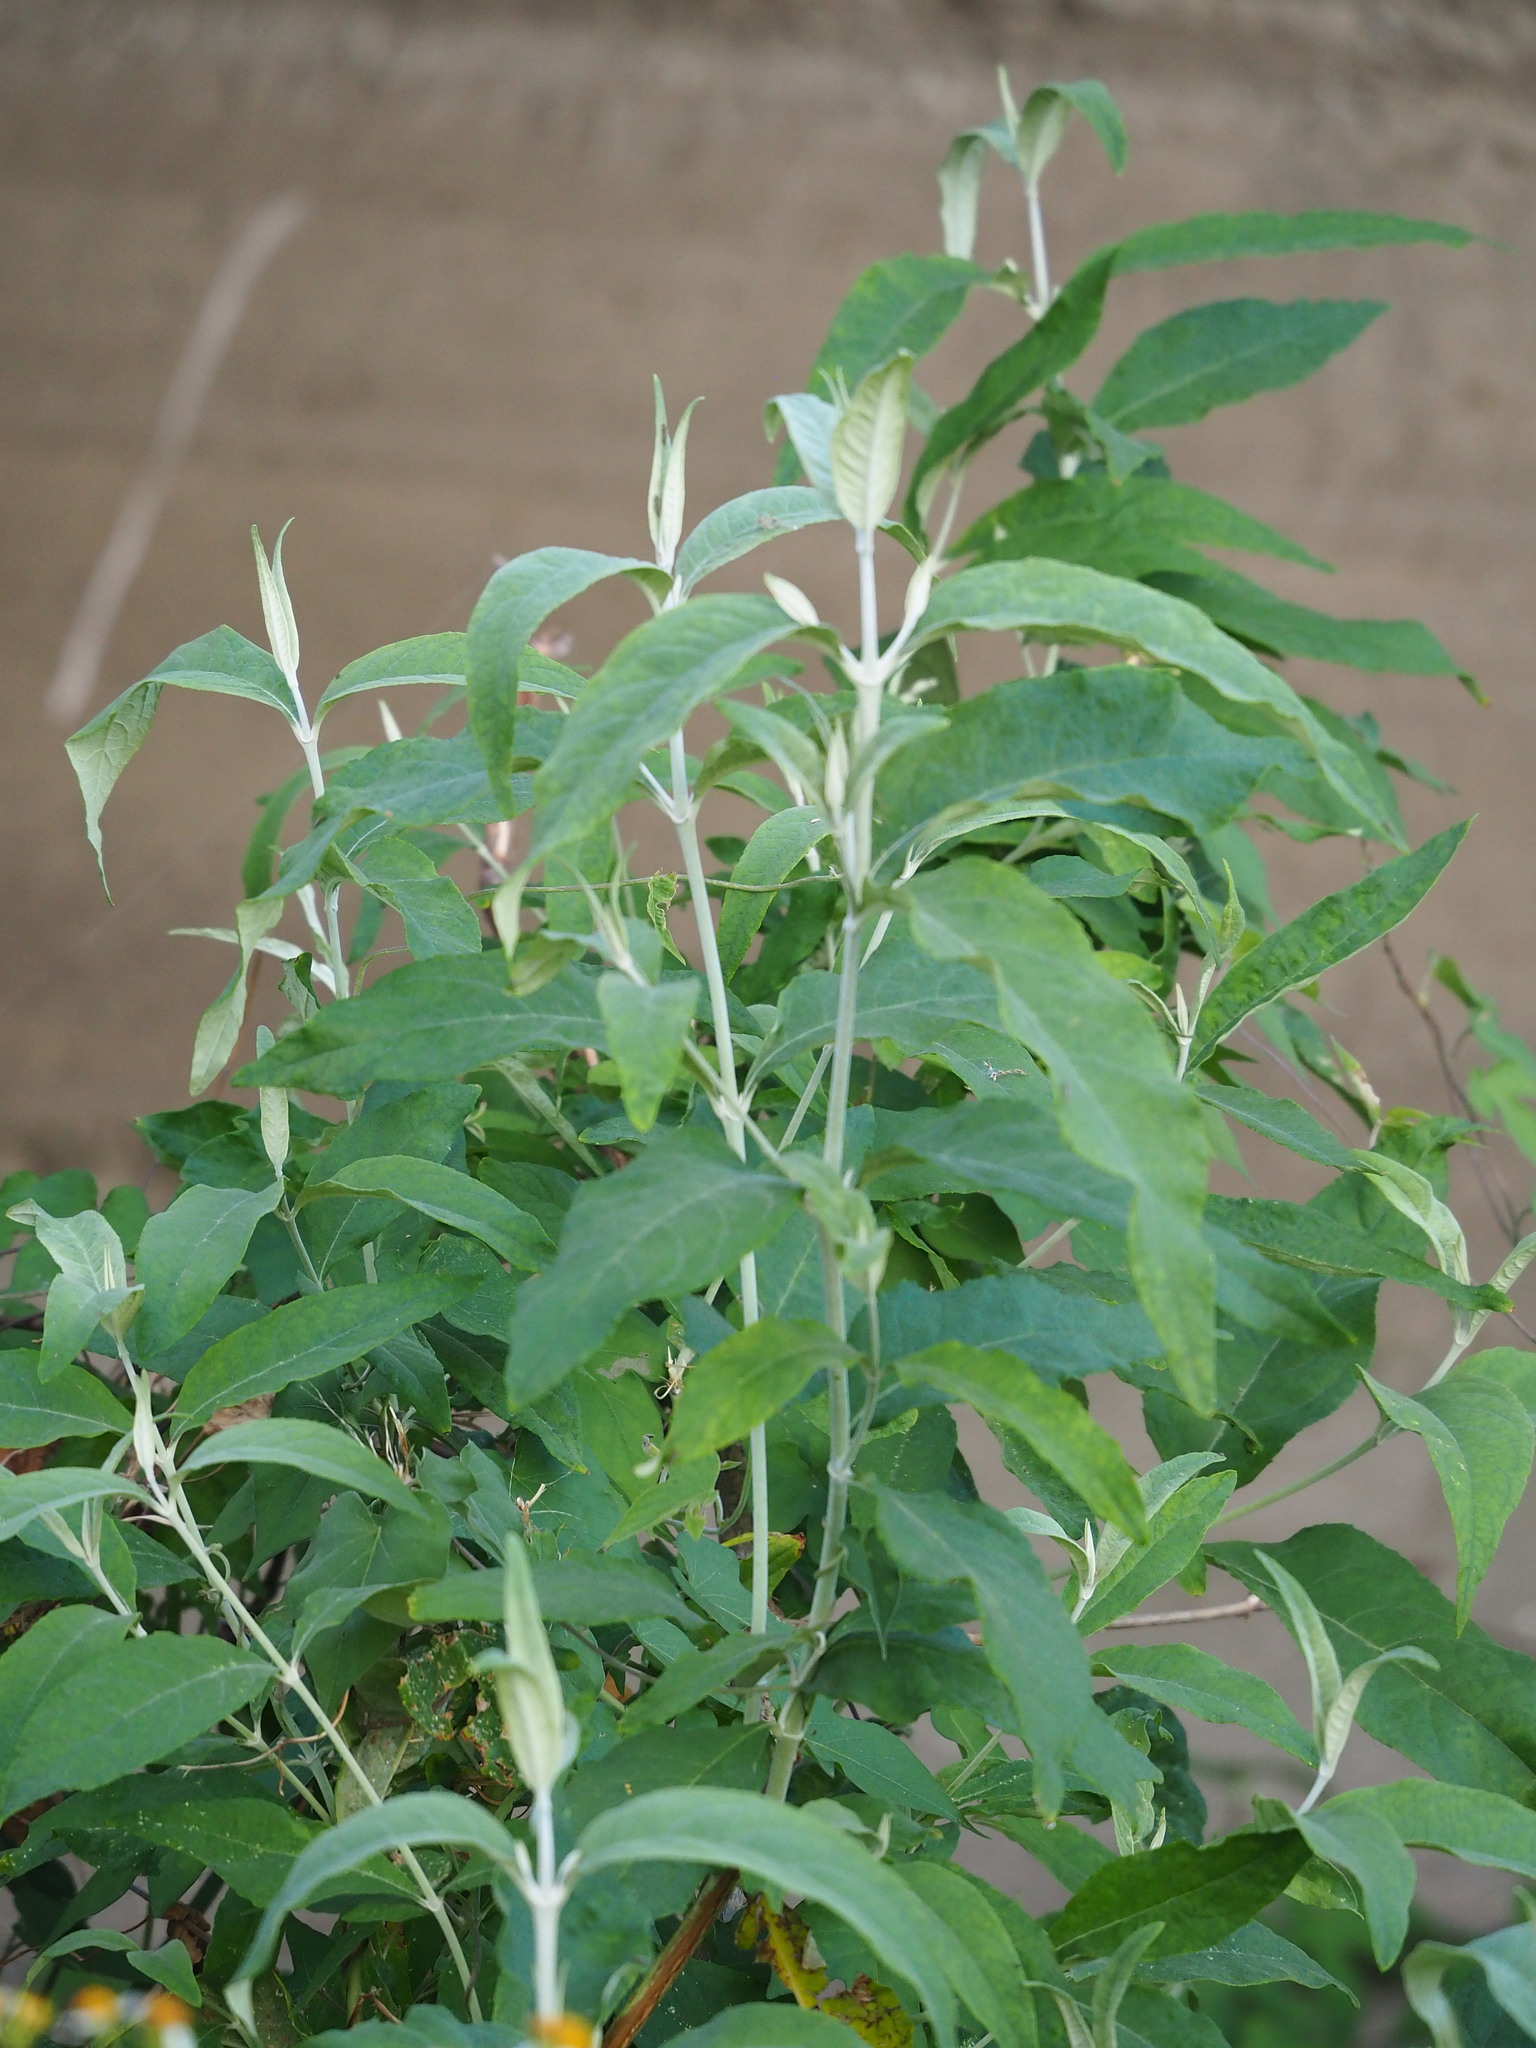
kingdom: Plantae
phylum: Tracheophyta
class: Magnoliopsida
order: Lamiales
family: Scrophulariaceae
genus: Buddleja
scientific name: Buddleja asiatica
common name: Dog tail
